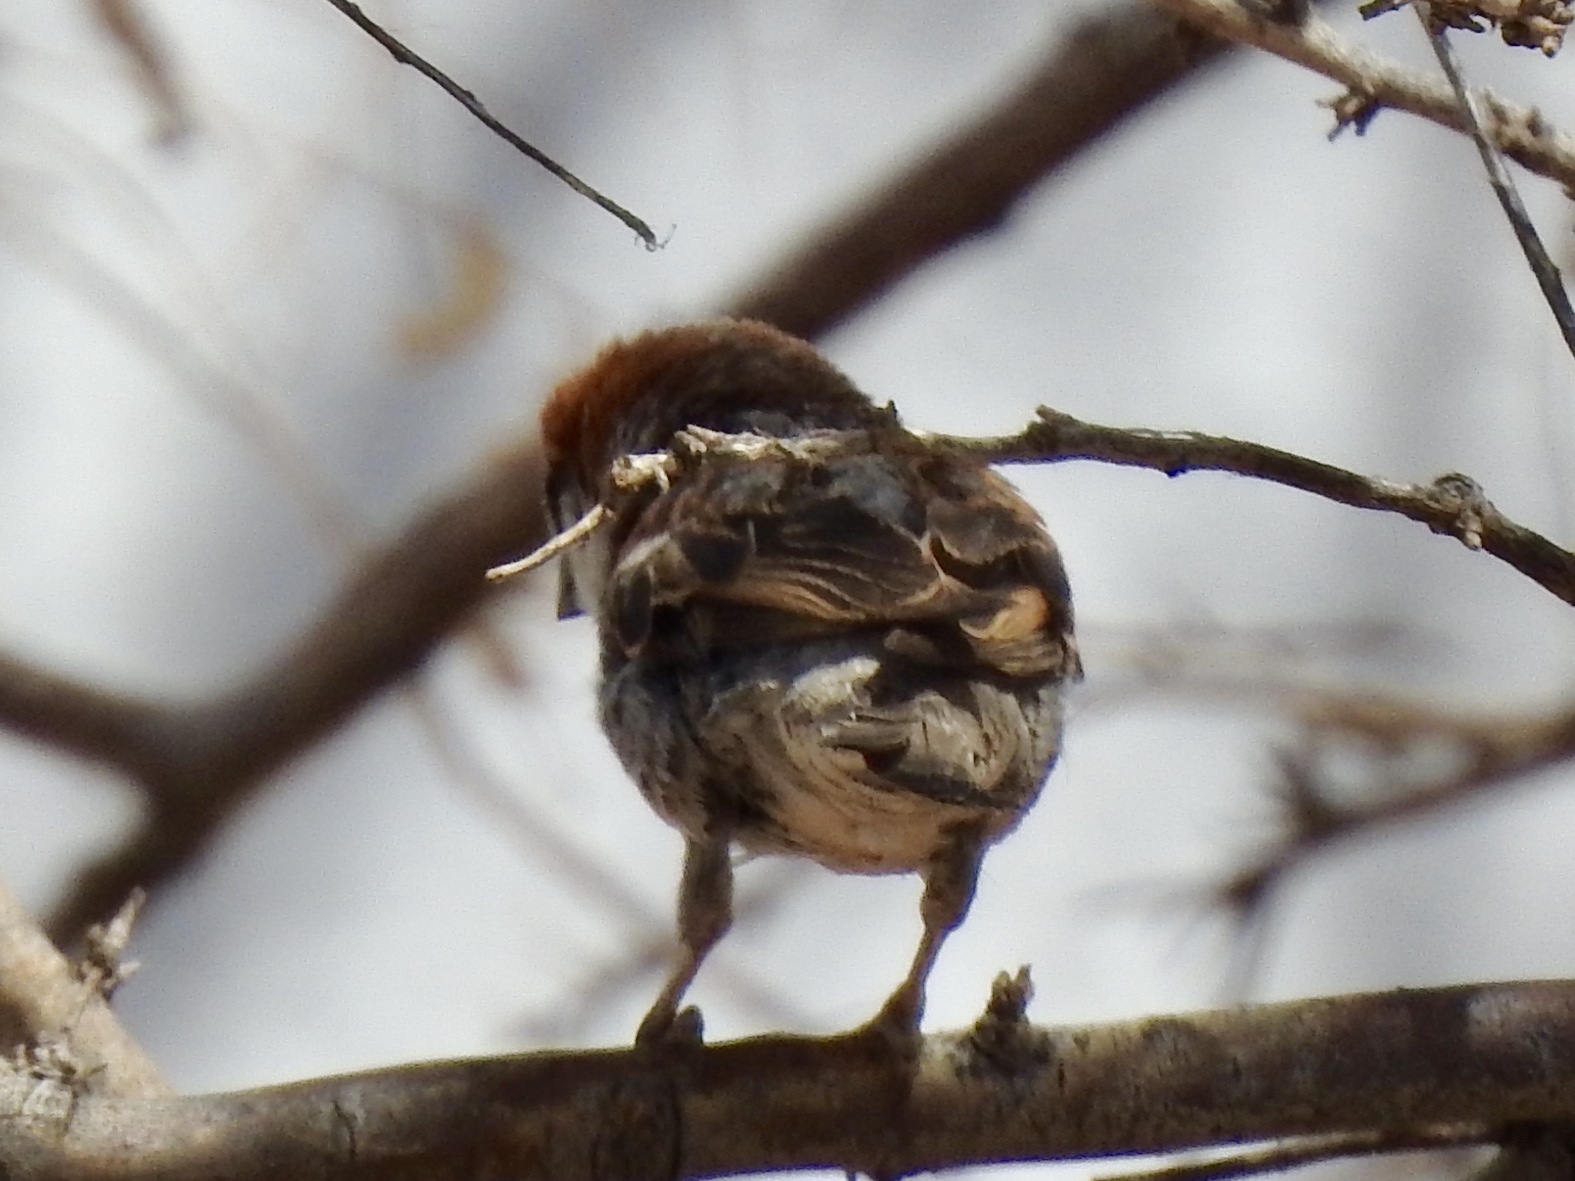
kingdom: Animalia
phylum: Chordata
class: Aves
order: Passeriformes
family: Passeridae
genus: Passer
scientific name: Passer domesticus
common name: House sparrow
